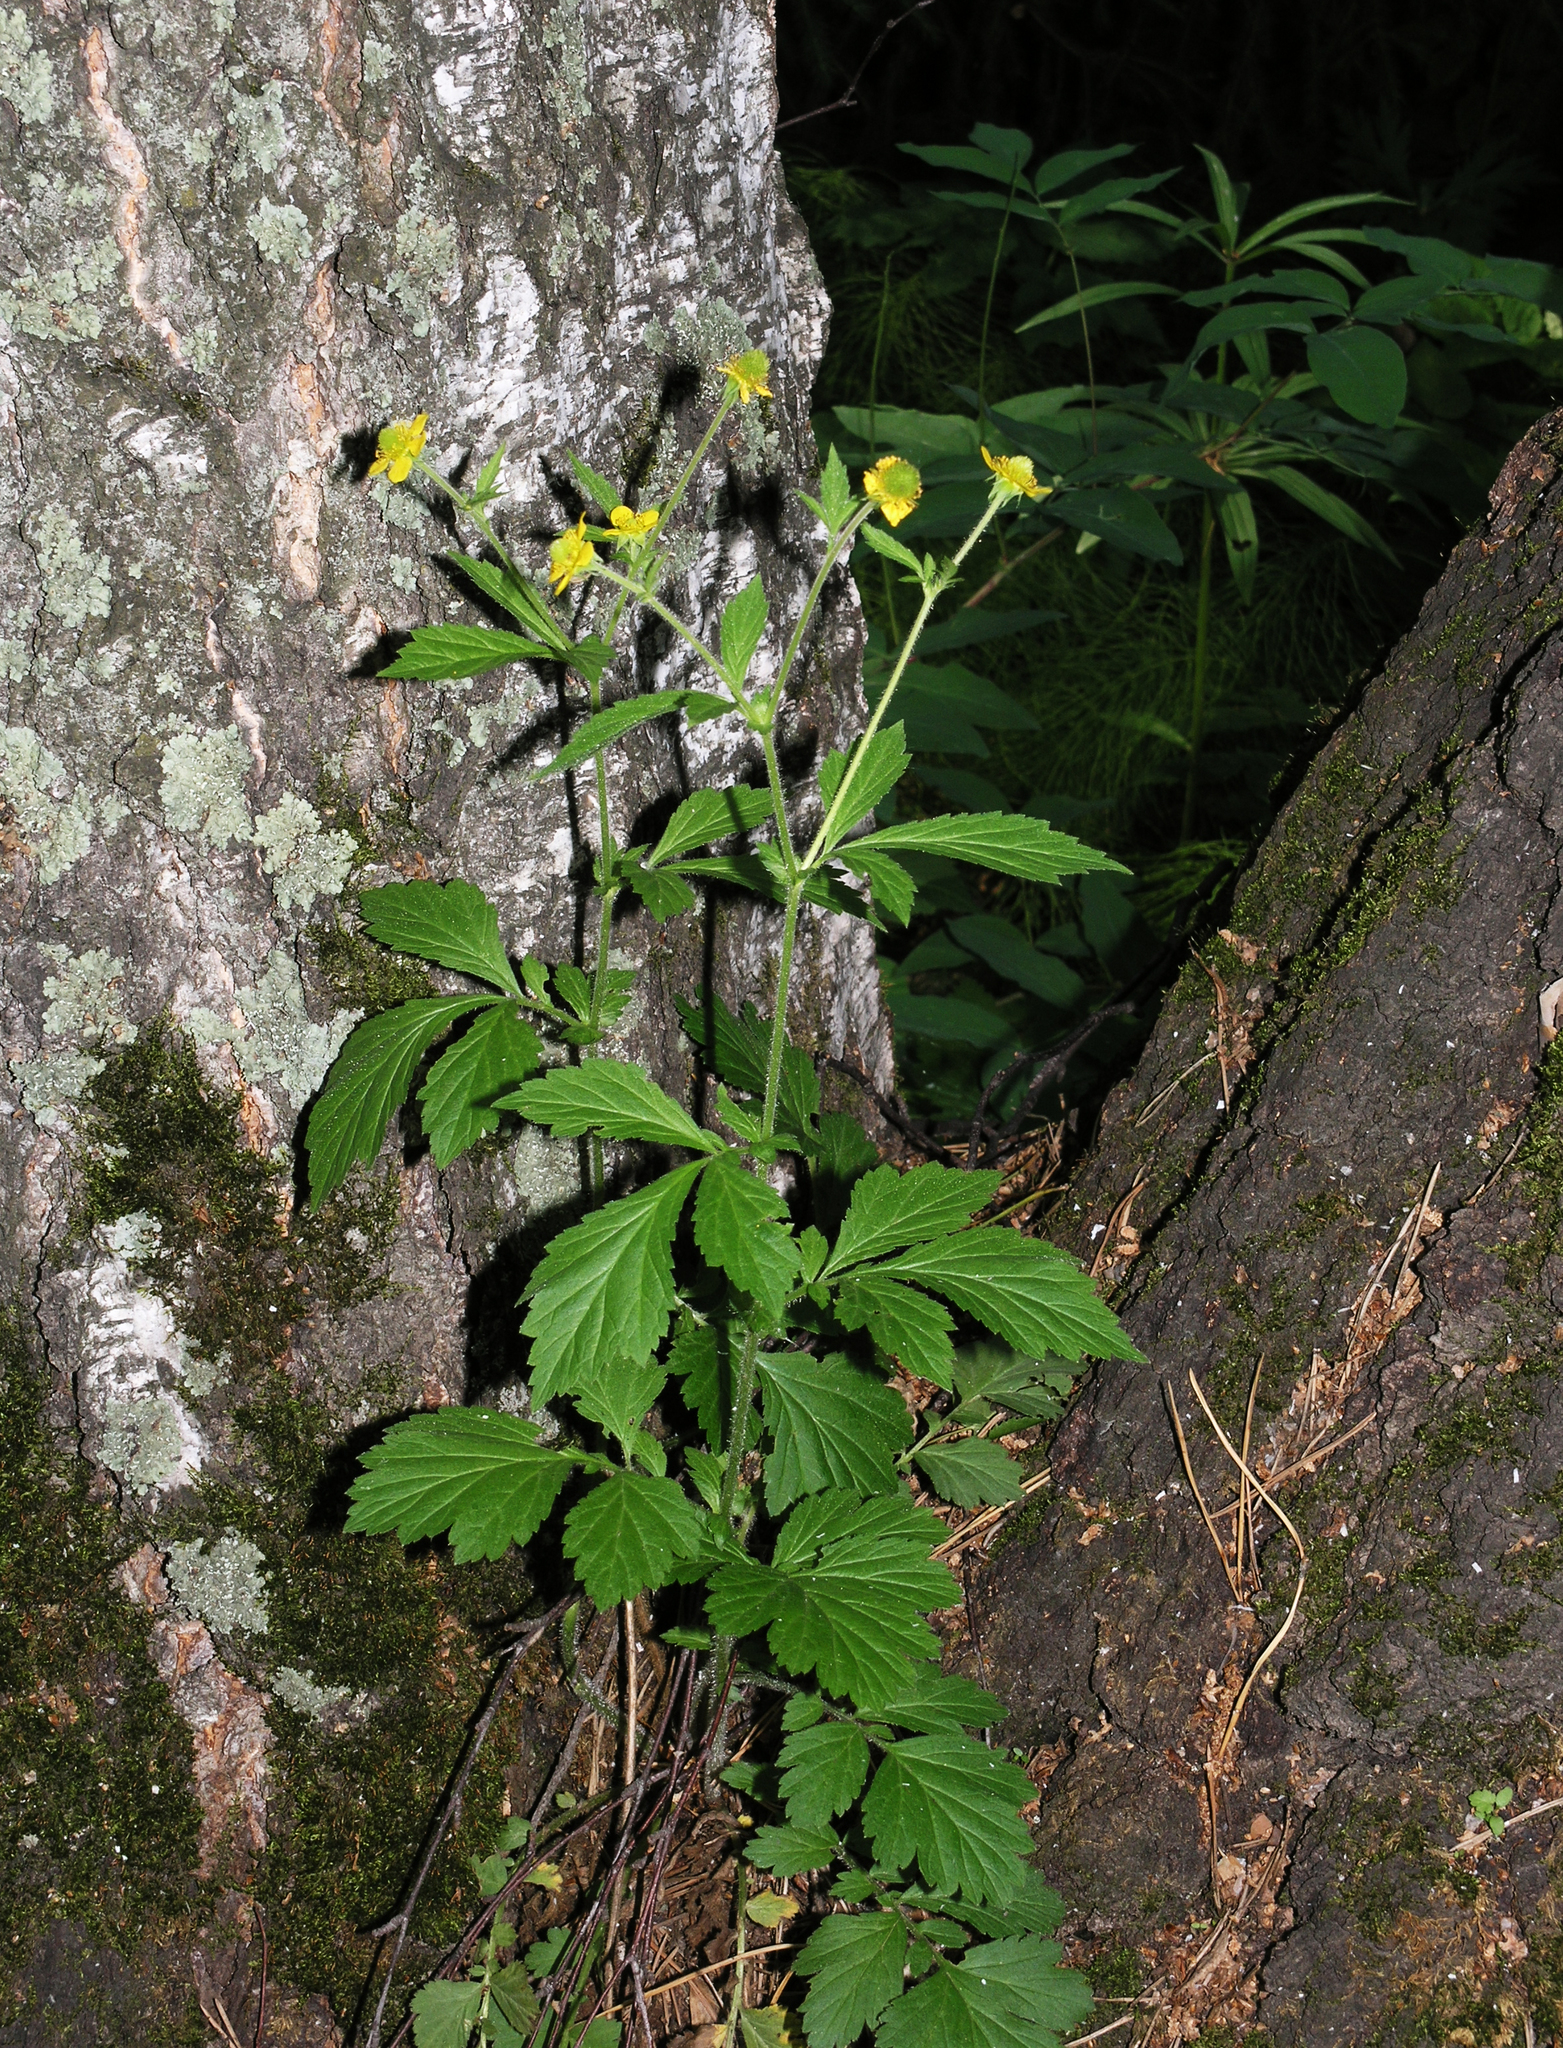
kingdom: Plantae
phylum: Tracheophyta
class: Magnoliopsida
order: Rosales
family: Rosaceae
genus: Geum
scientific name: Geum aleppicum
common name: Yellow avens
